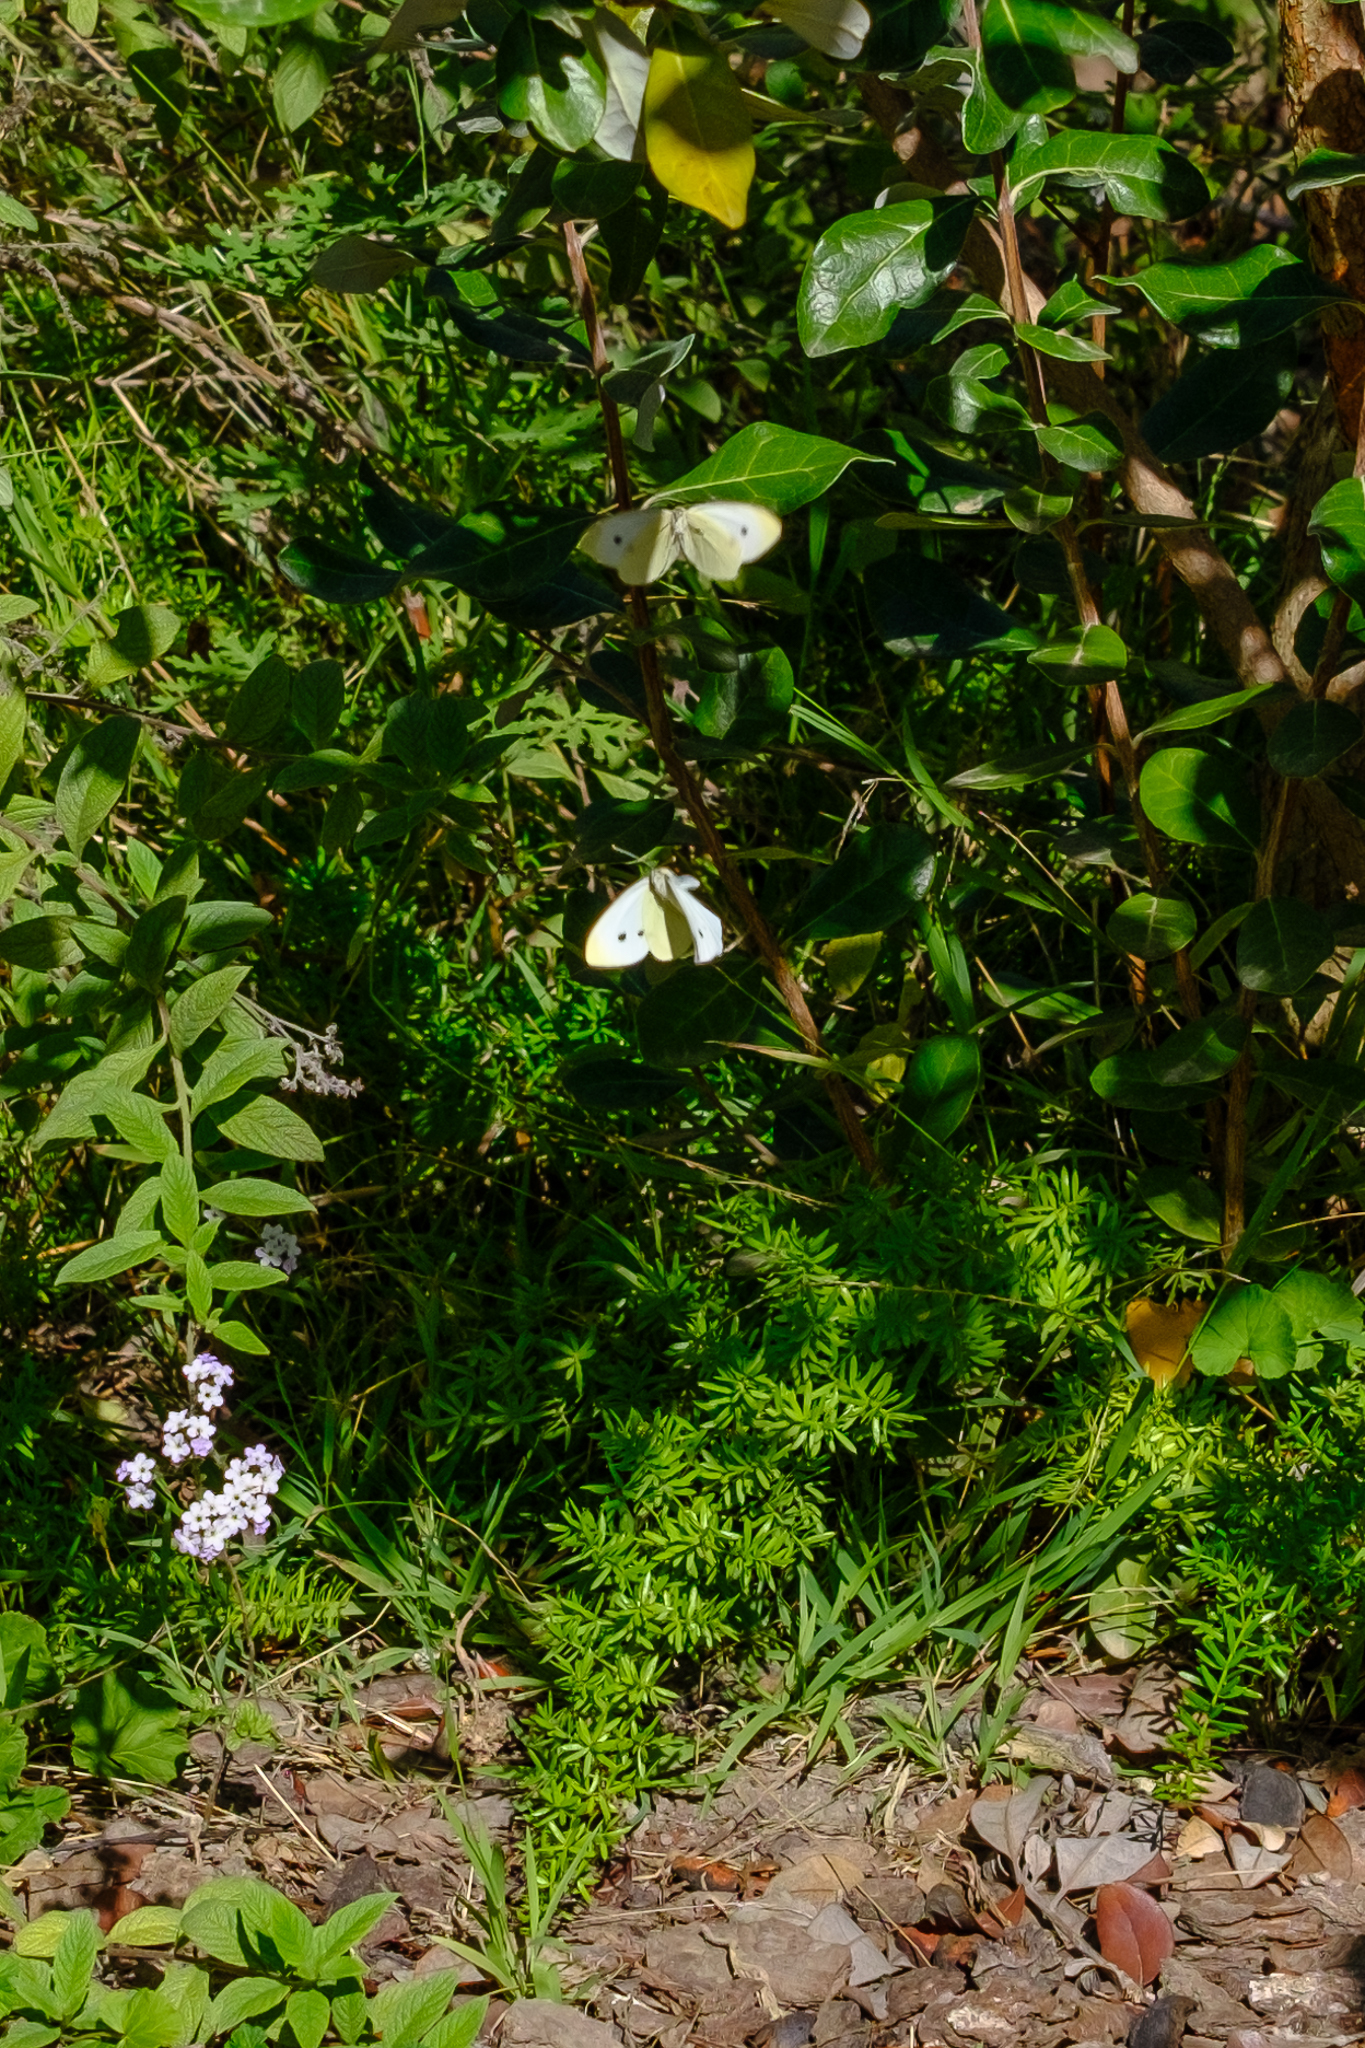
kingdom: Animalia
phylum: Arthropoda
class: Insecta
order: Lepidoptera
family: Pieridae
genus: Pieris
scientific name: Pieris rapae
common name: Small white
